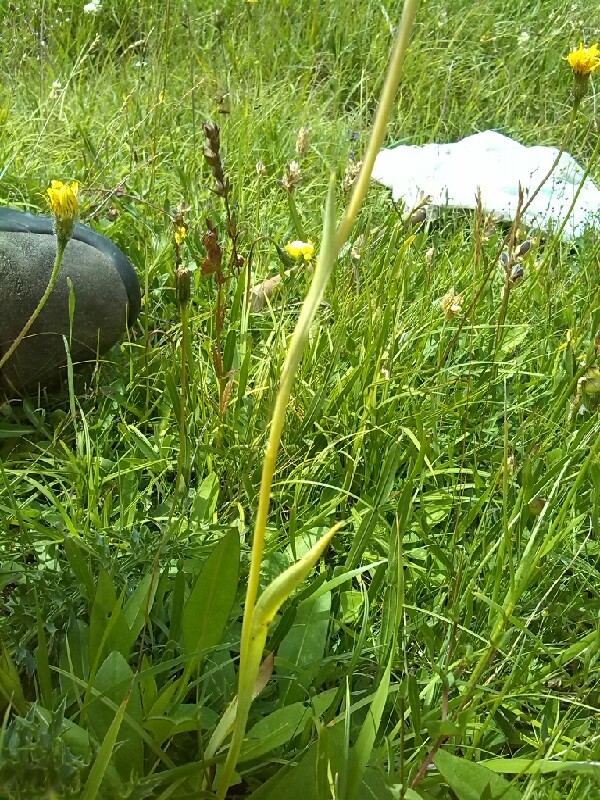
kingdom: Plantae
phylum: Tracheophyta
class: Liliopsida
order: Asparagales
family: Orchidaceae
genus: Traunsteinera
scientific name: Traunsteinera globosa
